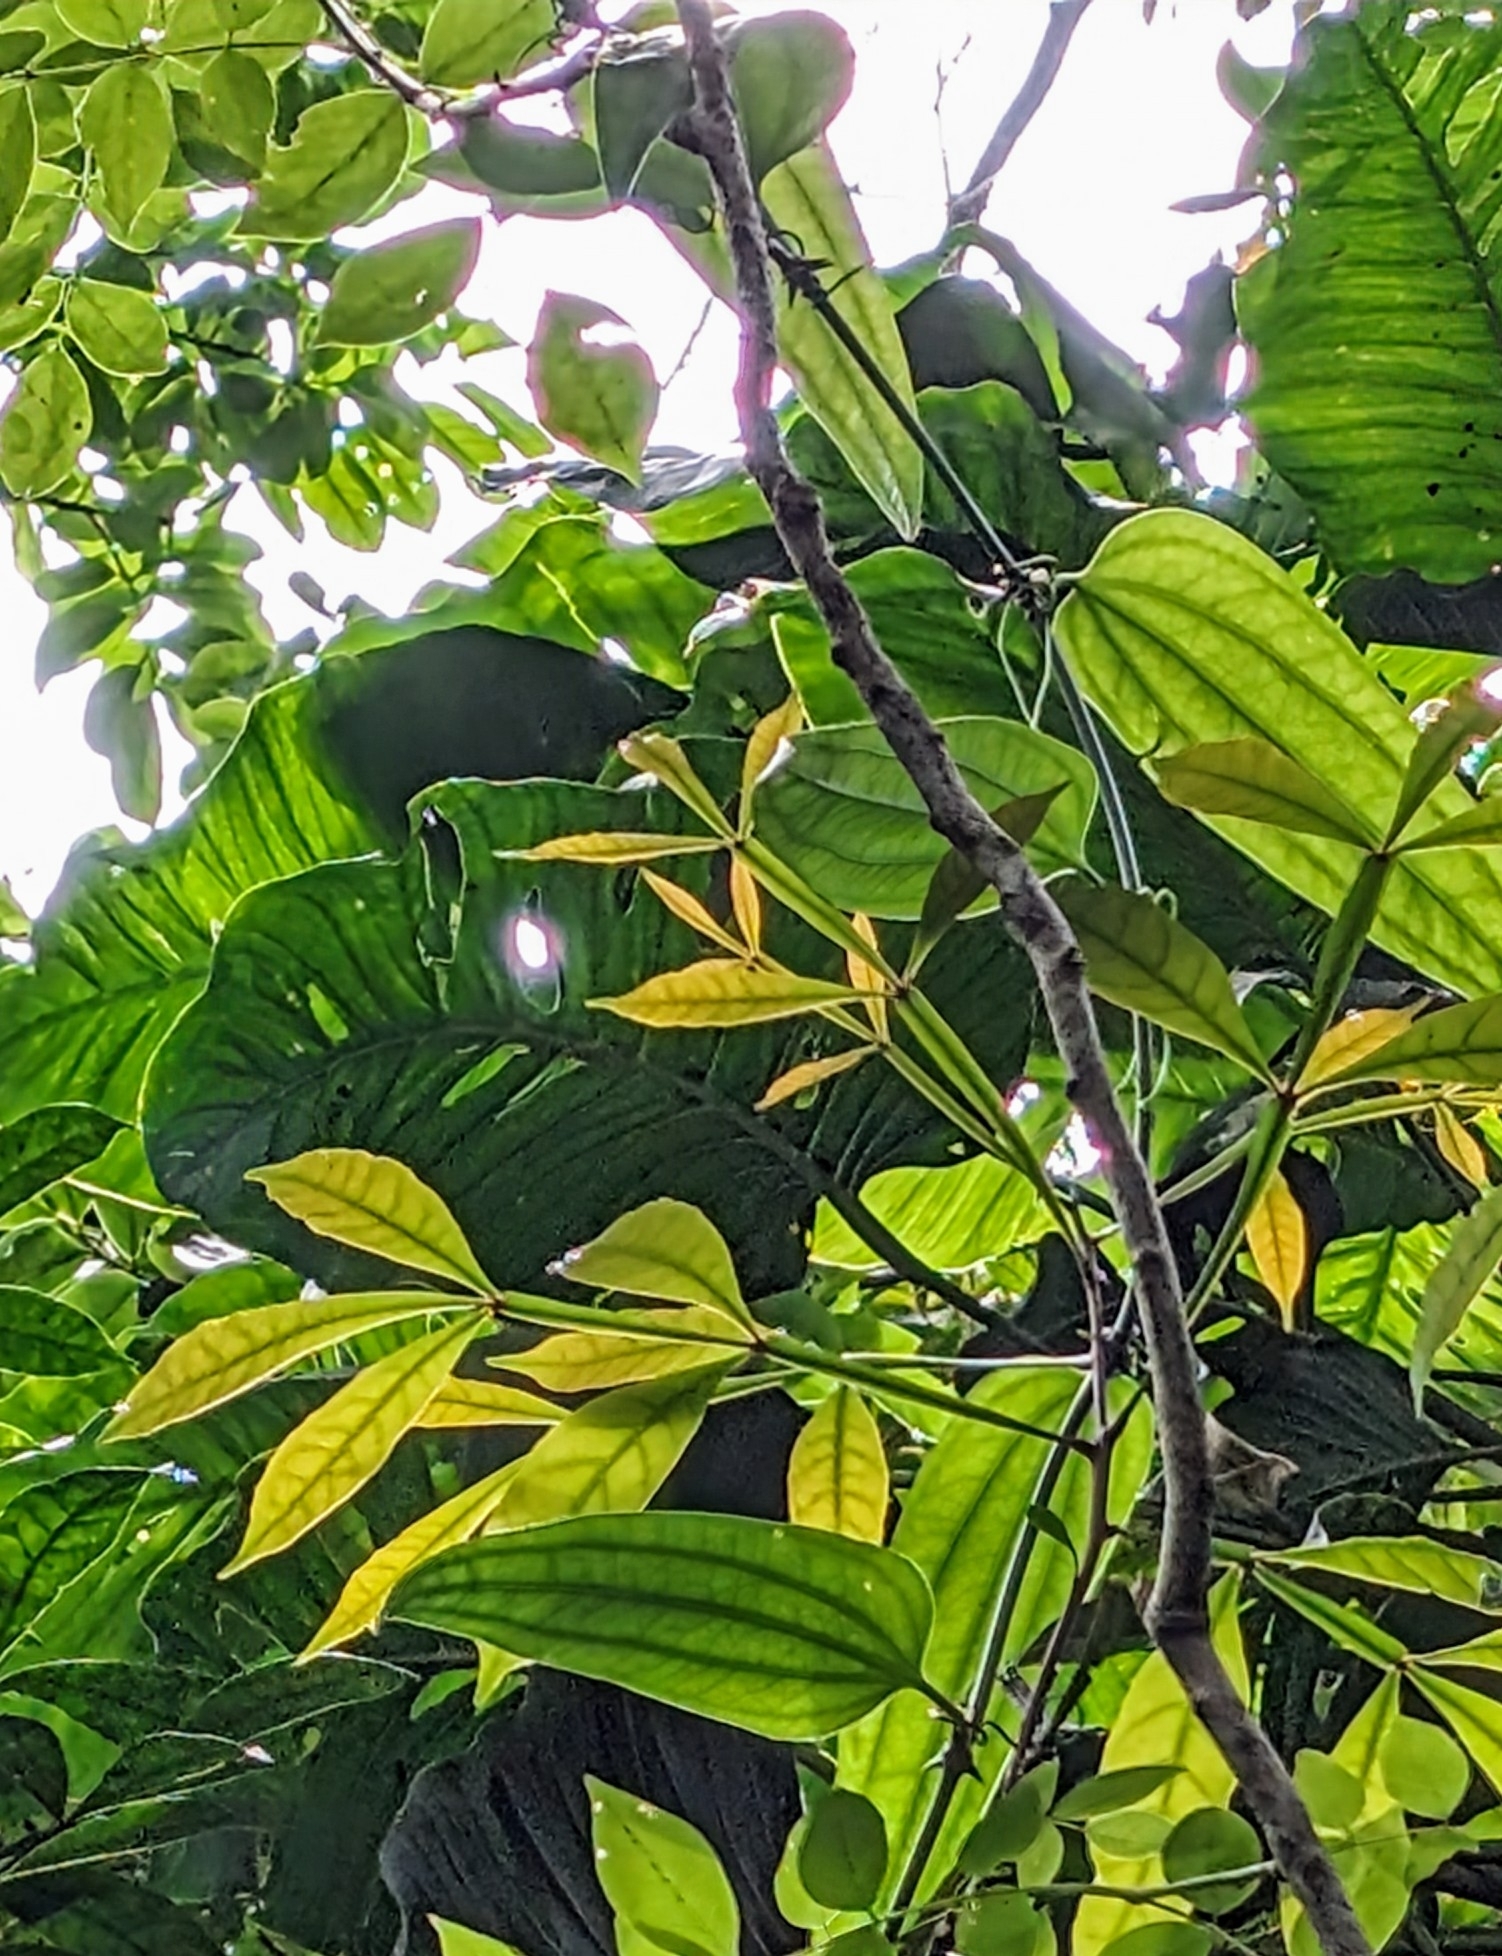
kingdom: Plantae
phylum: Tracheophyta
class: Magnoliopsida
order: Sapindales
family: Simaroubaceae
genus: Quassia
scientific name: Quassia amara
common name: Quassia
